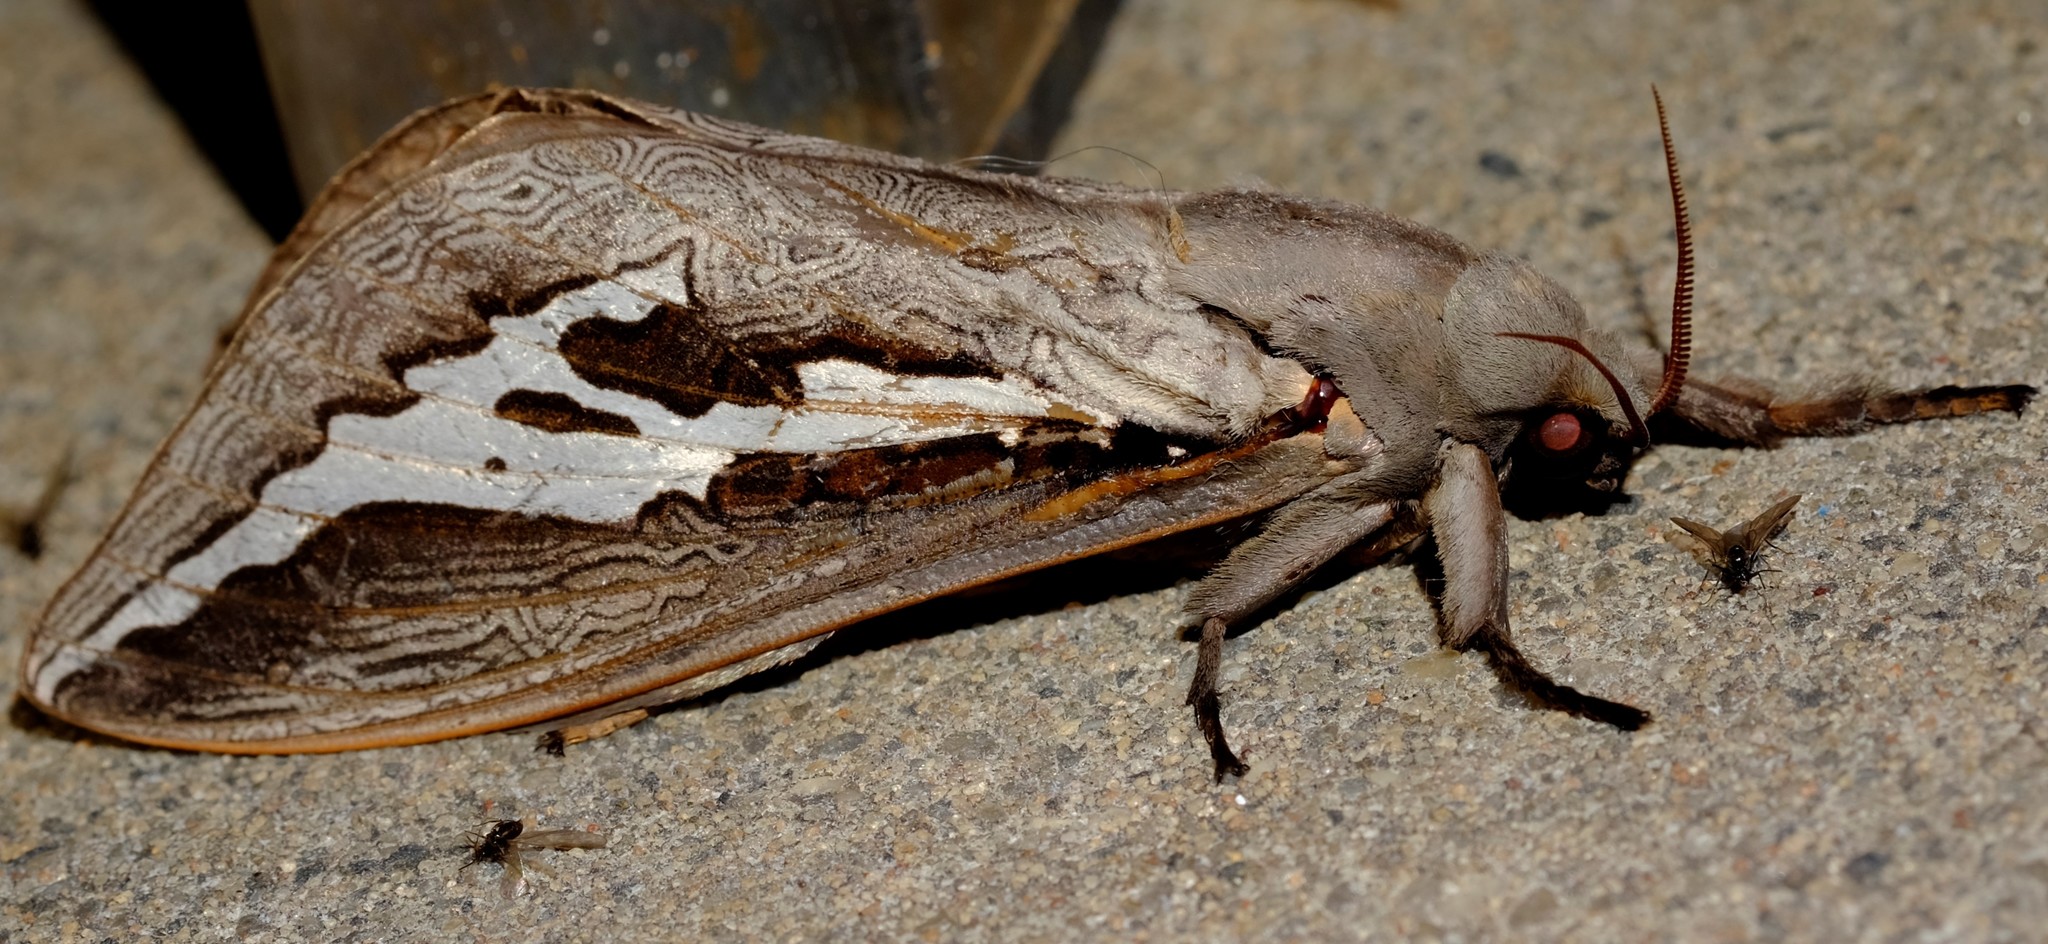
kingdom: Animalia
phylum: Arthropoda
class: Insecta
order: Lepidoptera
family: Hepialidae
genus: Abantiades
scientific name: Abantiades labyrinthicus
